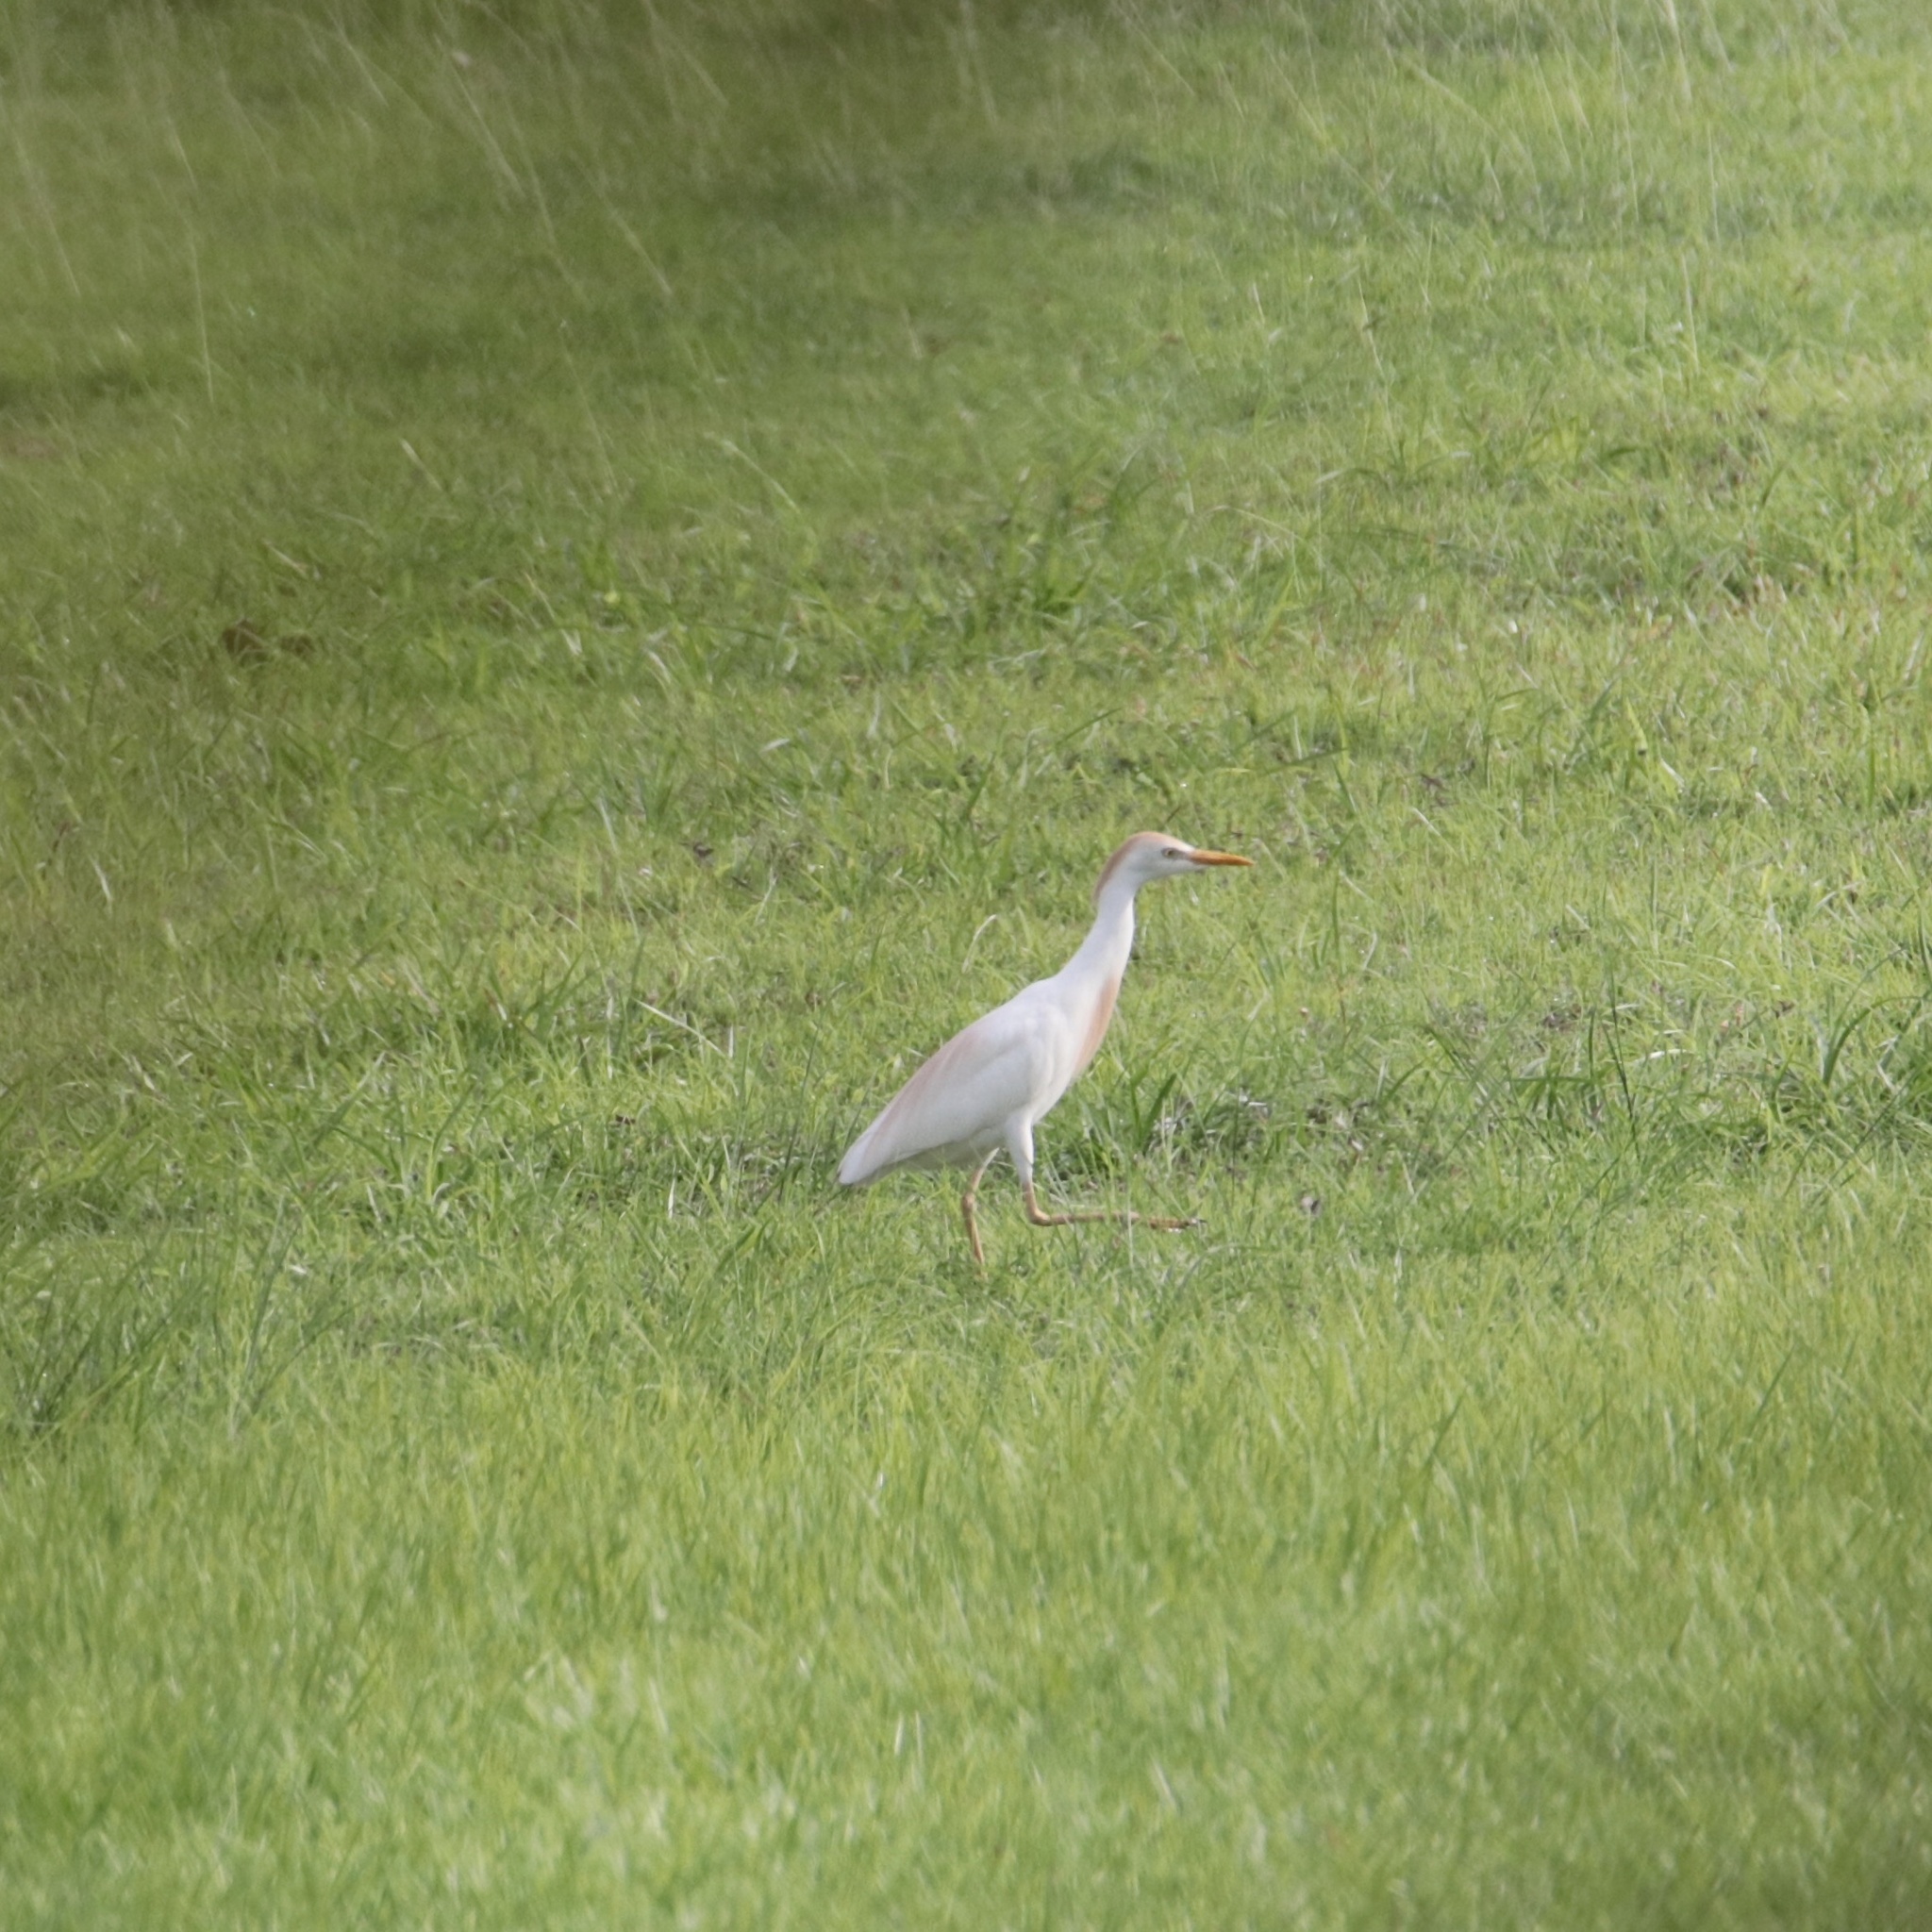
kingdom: Animalia
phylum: Chordata
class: Aves
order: Pelecaniformes
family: Ardeidae
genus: Bubulcus
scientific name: Bubulcus ibis
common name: Cattle egret
